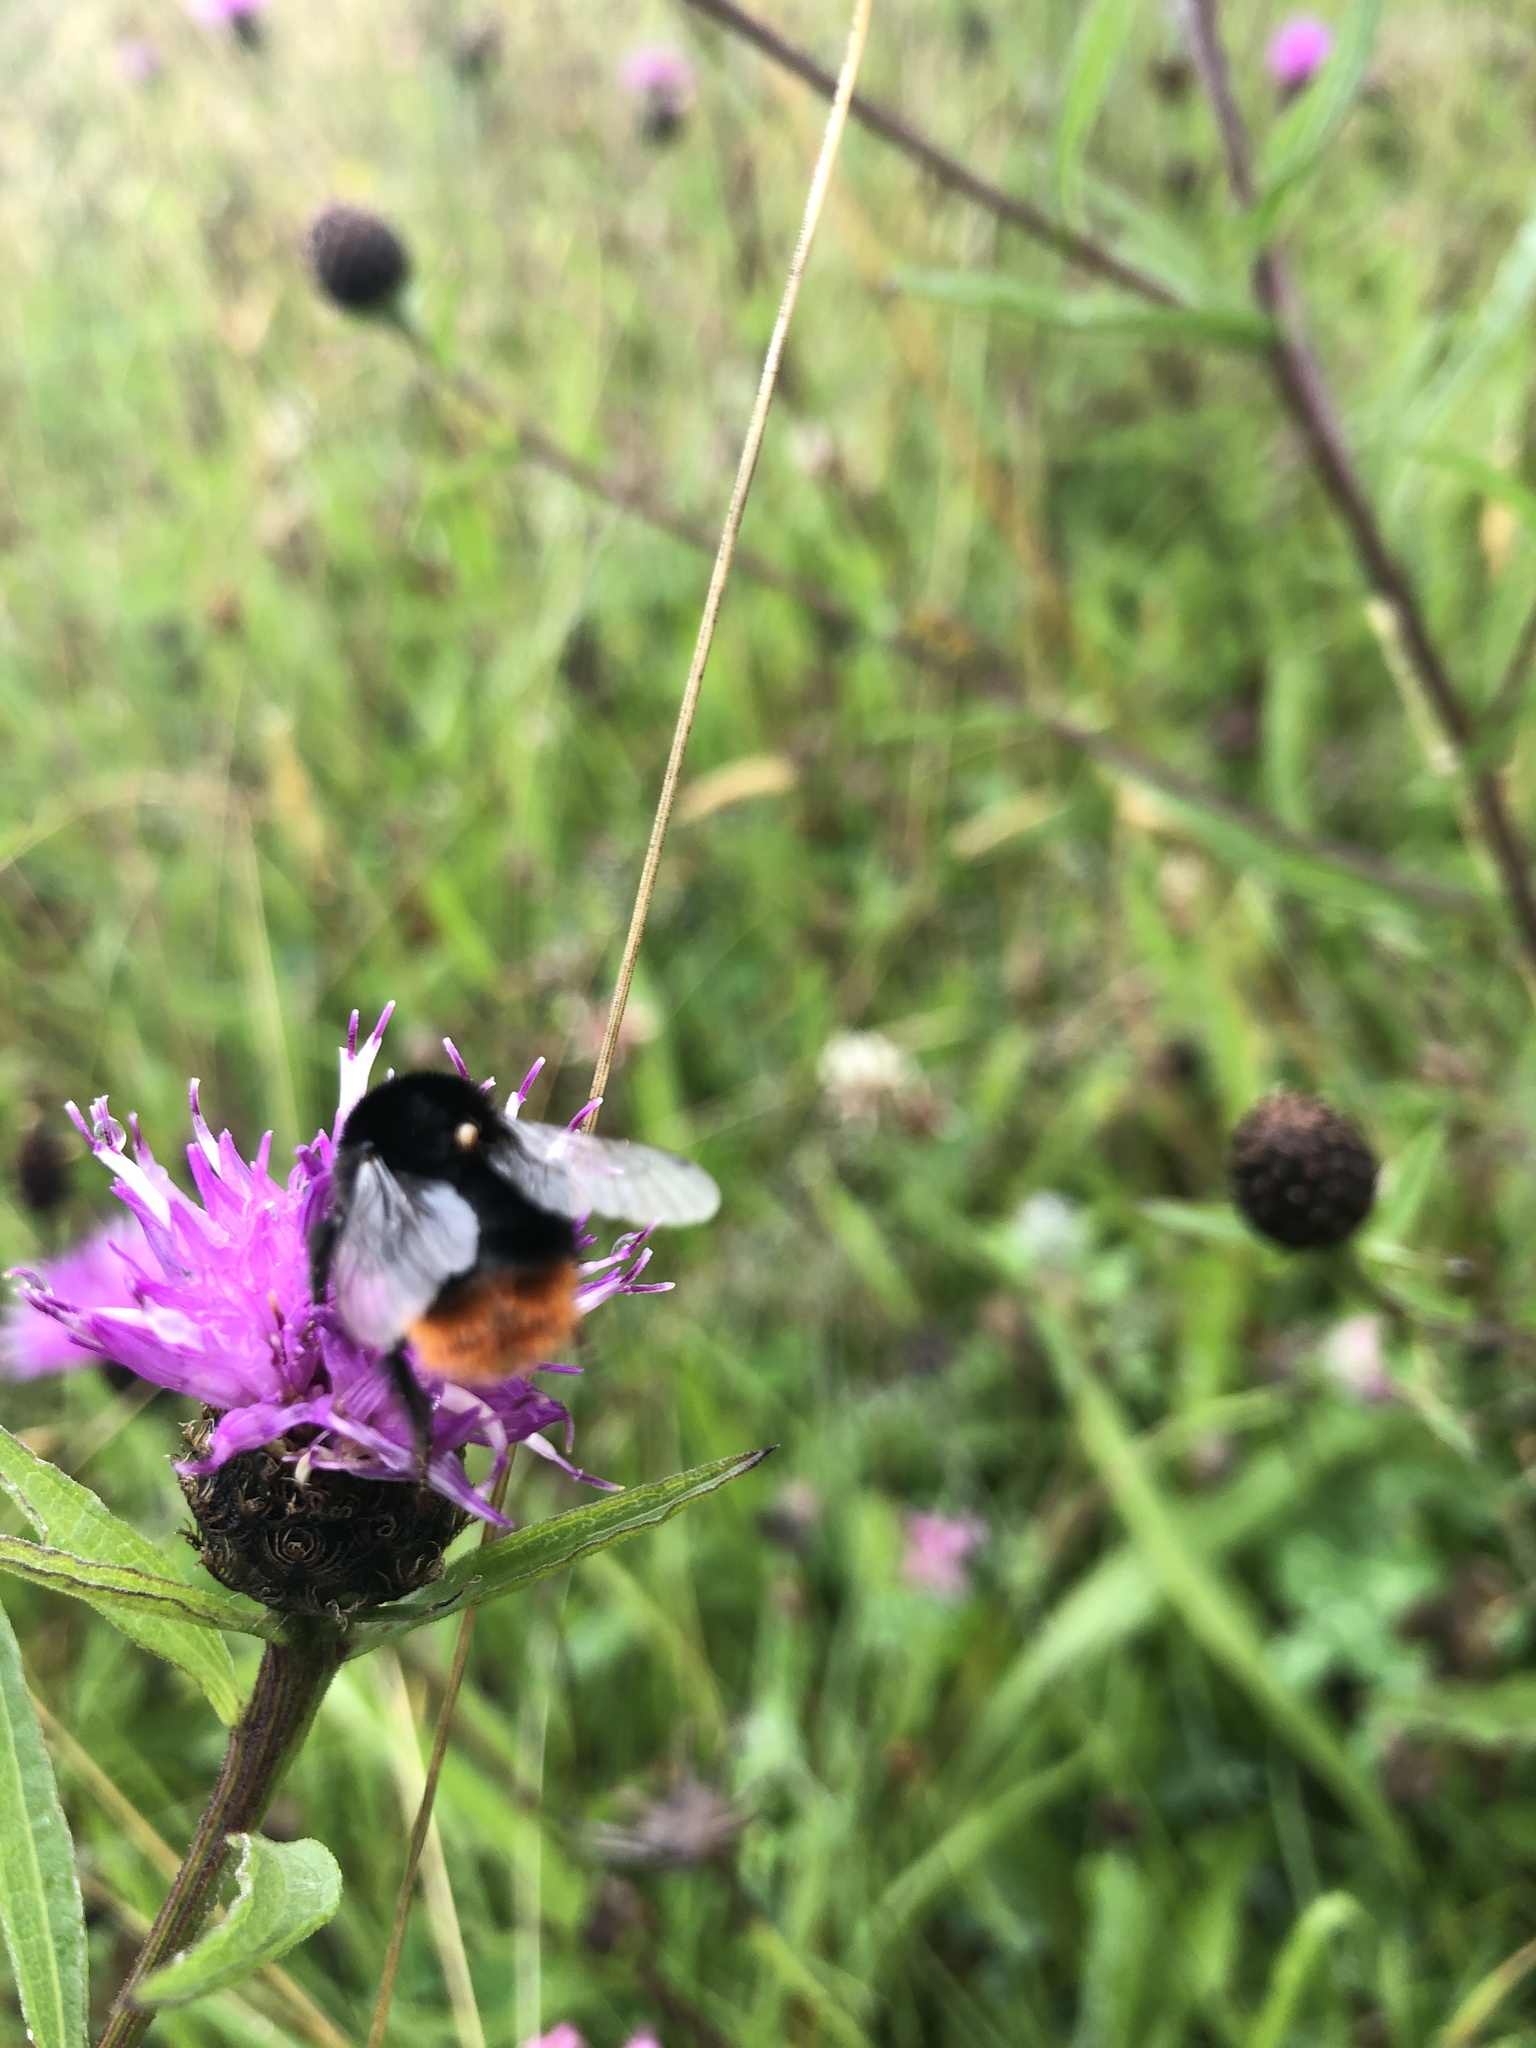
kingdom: Animalia
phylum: Arthropoda
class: Insecta
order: Hymenoptera
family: Apidae
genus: Bombus
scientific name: Bombus lapidarius
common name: Large red-tailed humble-bee
